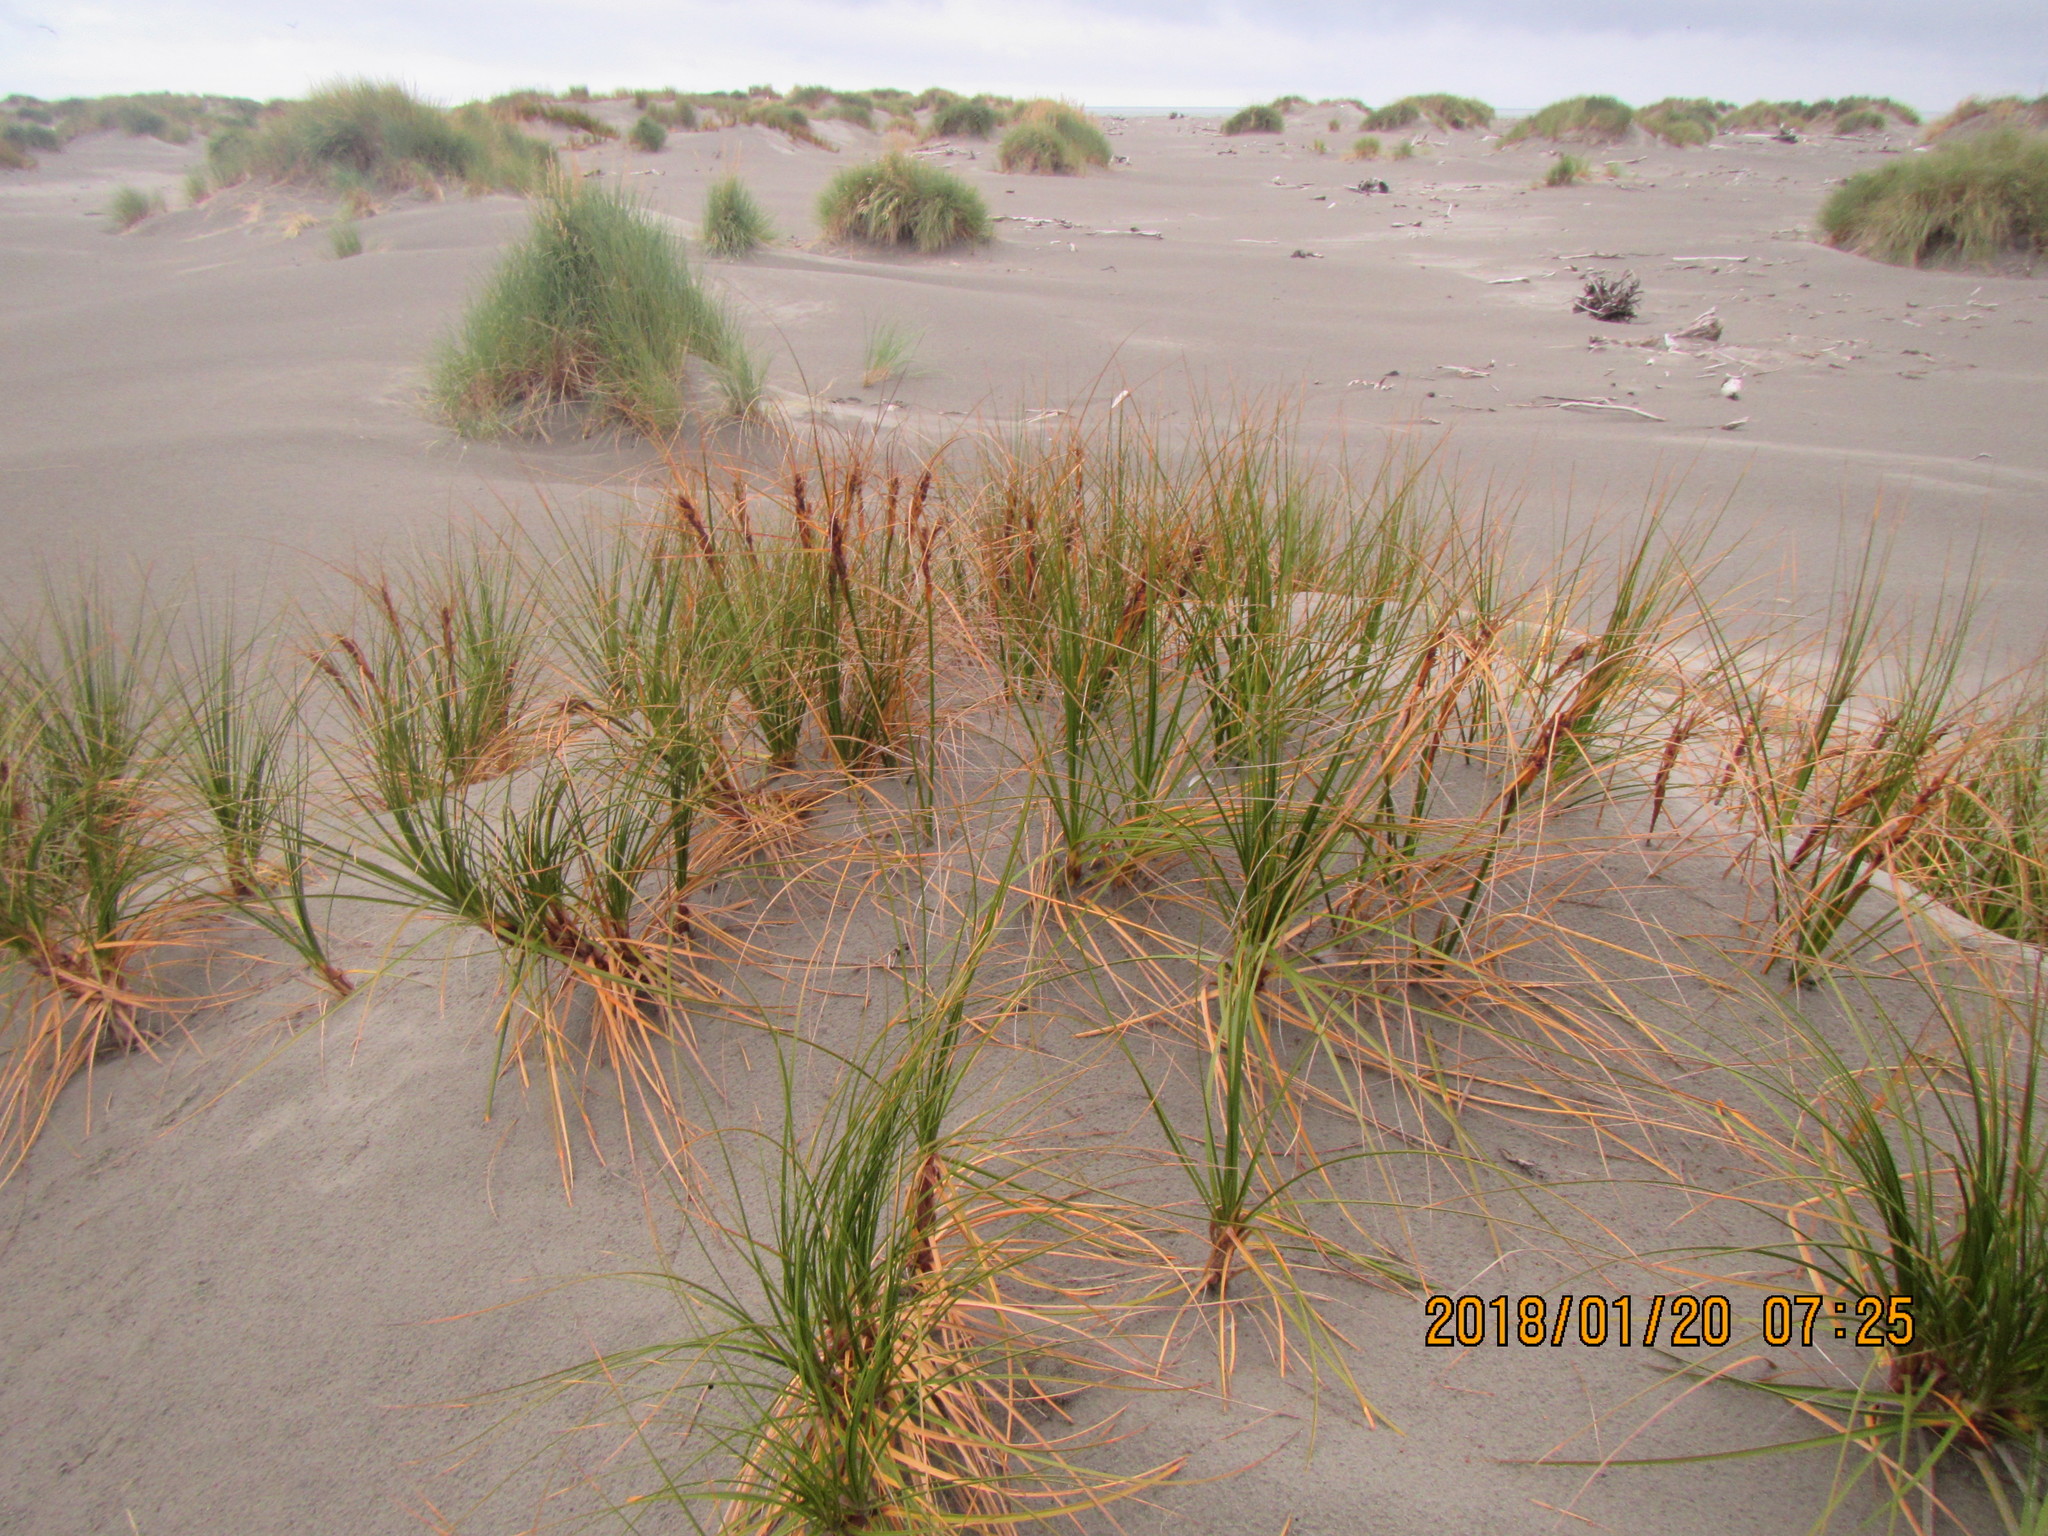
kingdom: Plantae
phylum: Tracheophyta
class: Liliopsida
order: Poales
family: Cyperaceae
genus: Ficinia
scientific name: Ficinia spiralis
